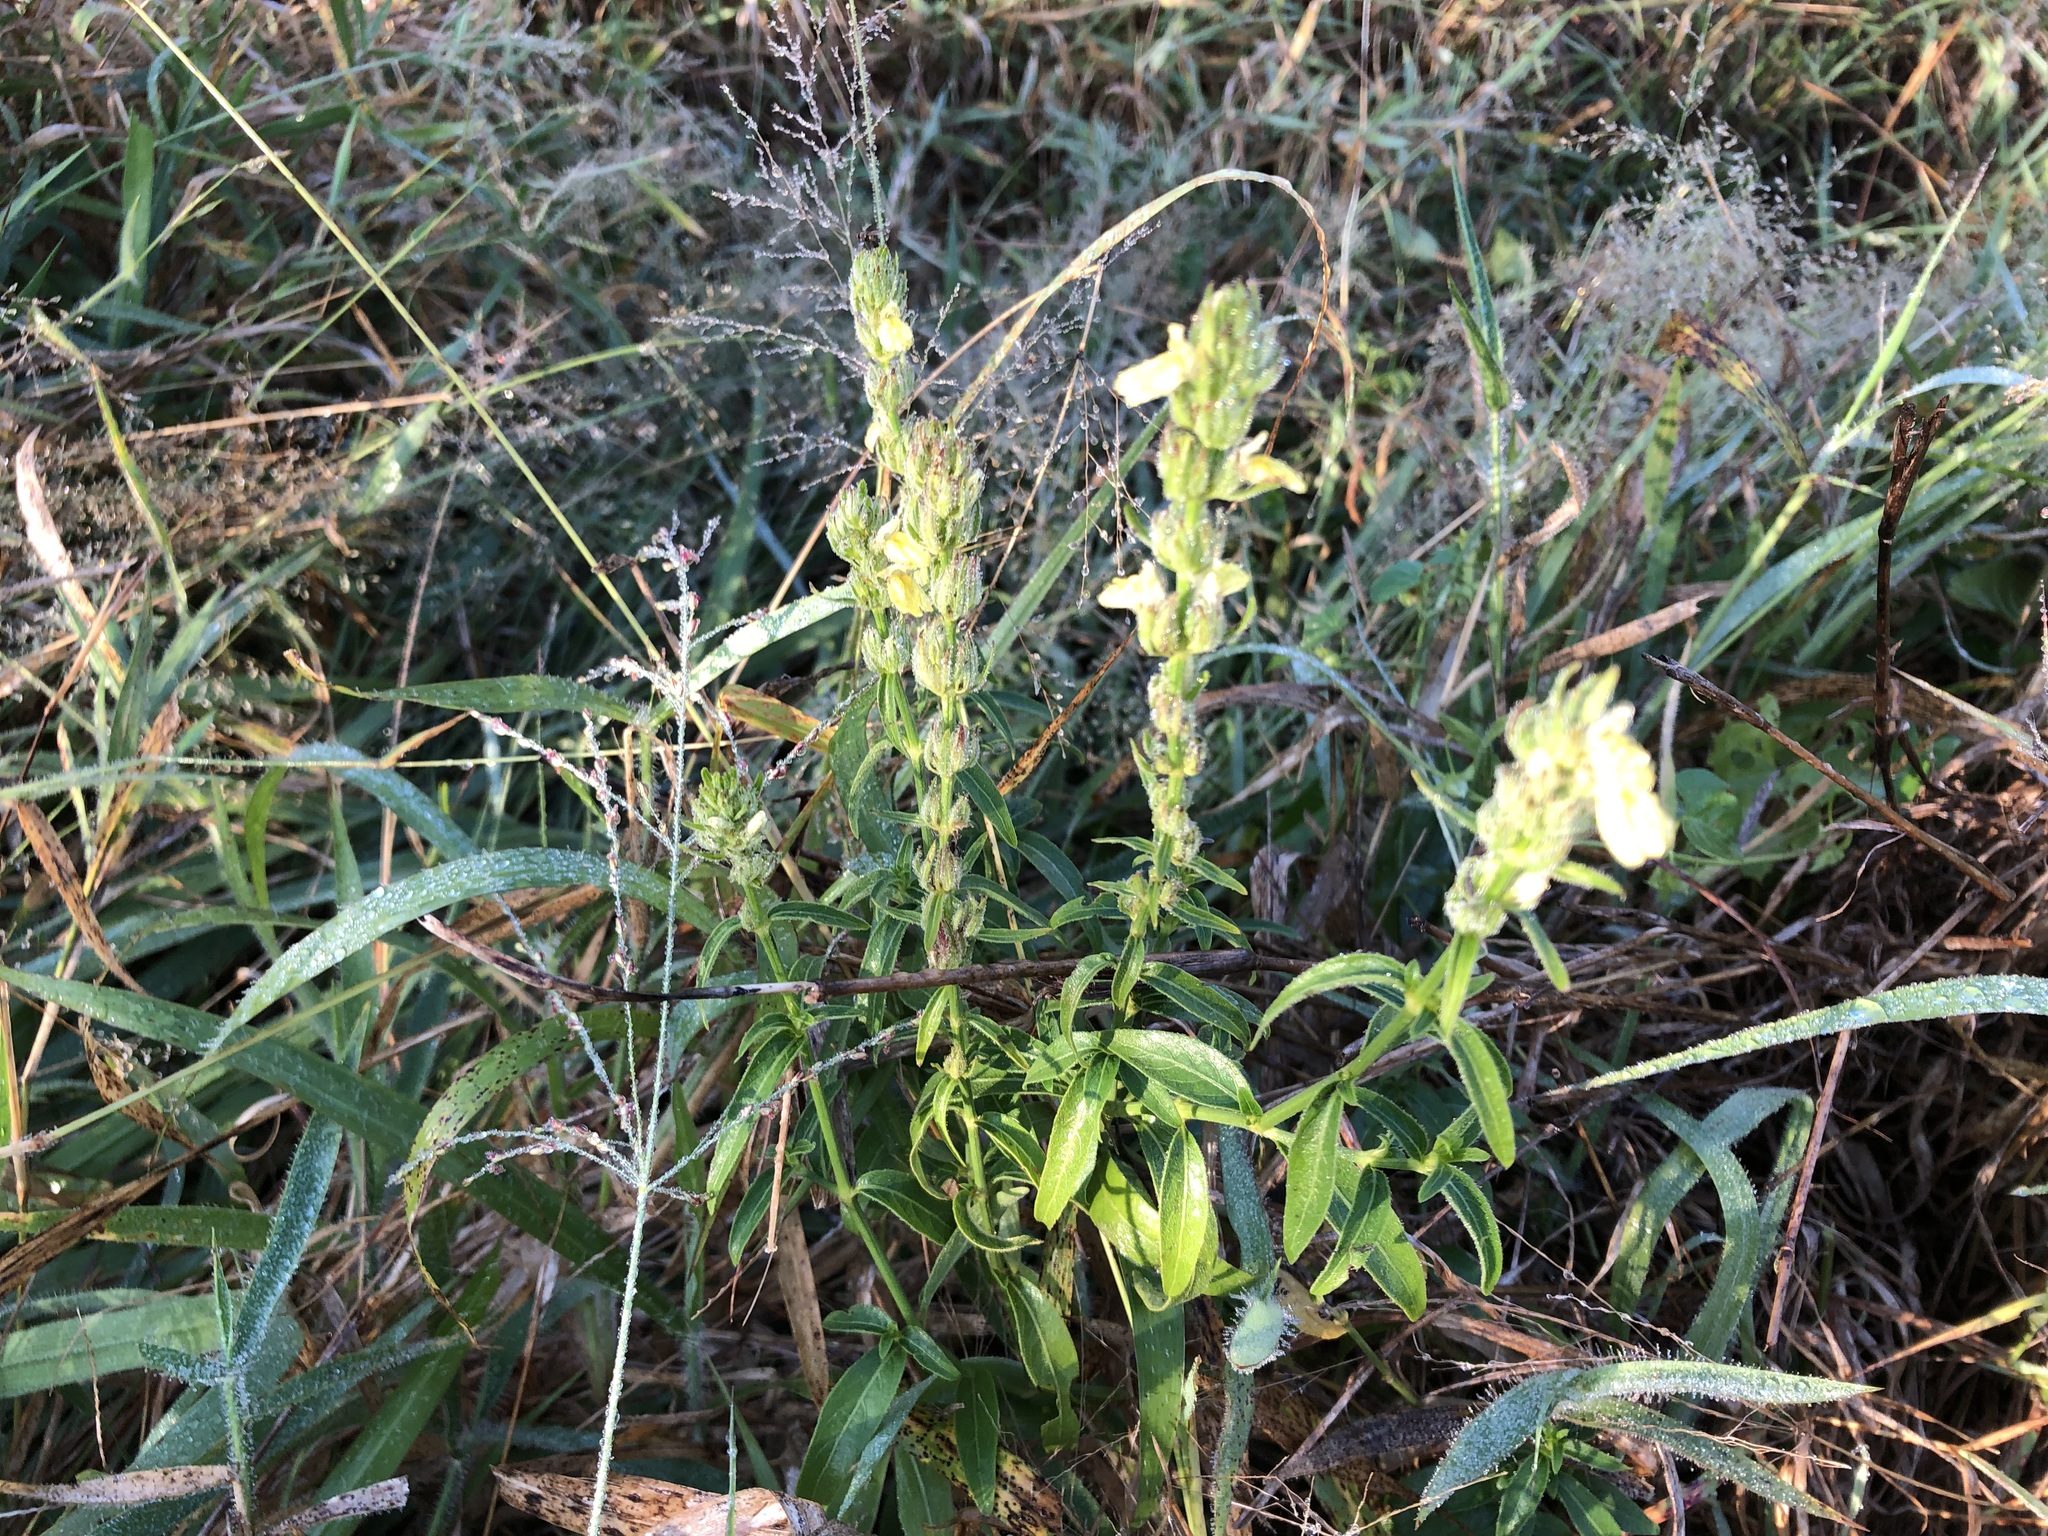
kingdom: Plantae
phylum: Tracheophyta
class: Magnoliopsida
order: Lamiales
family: Acanthaceae
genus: Justicia
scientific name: Justicia flava
